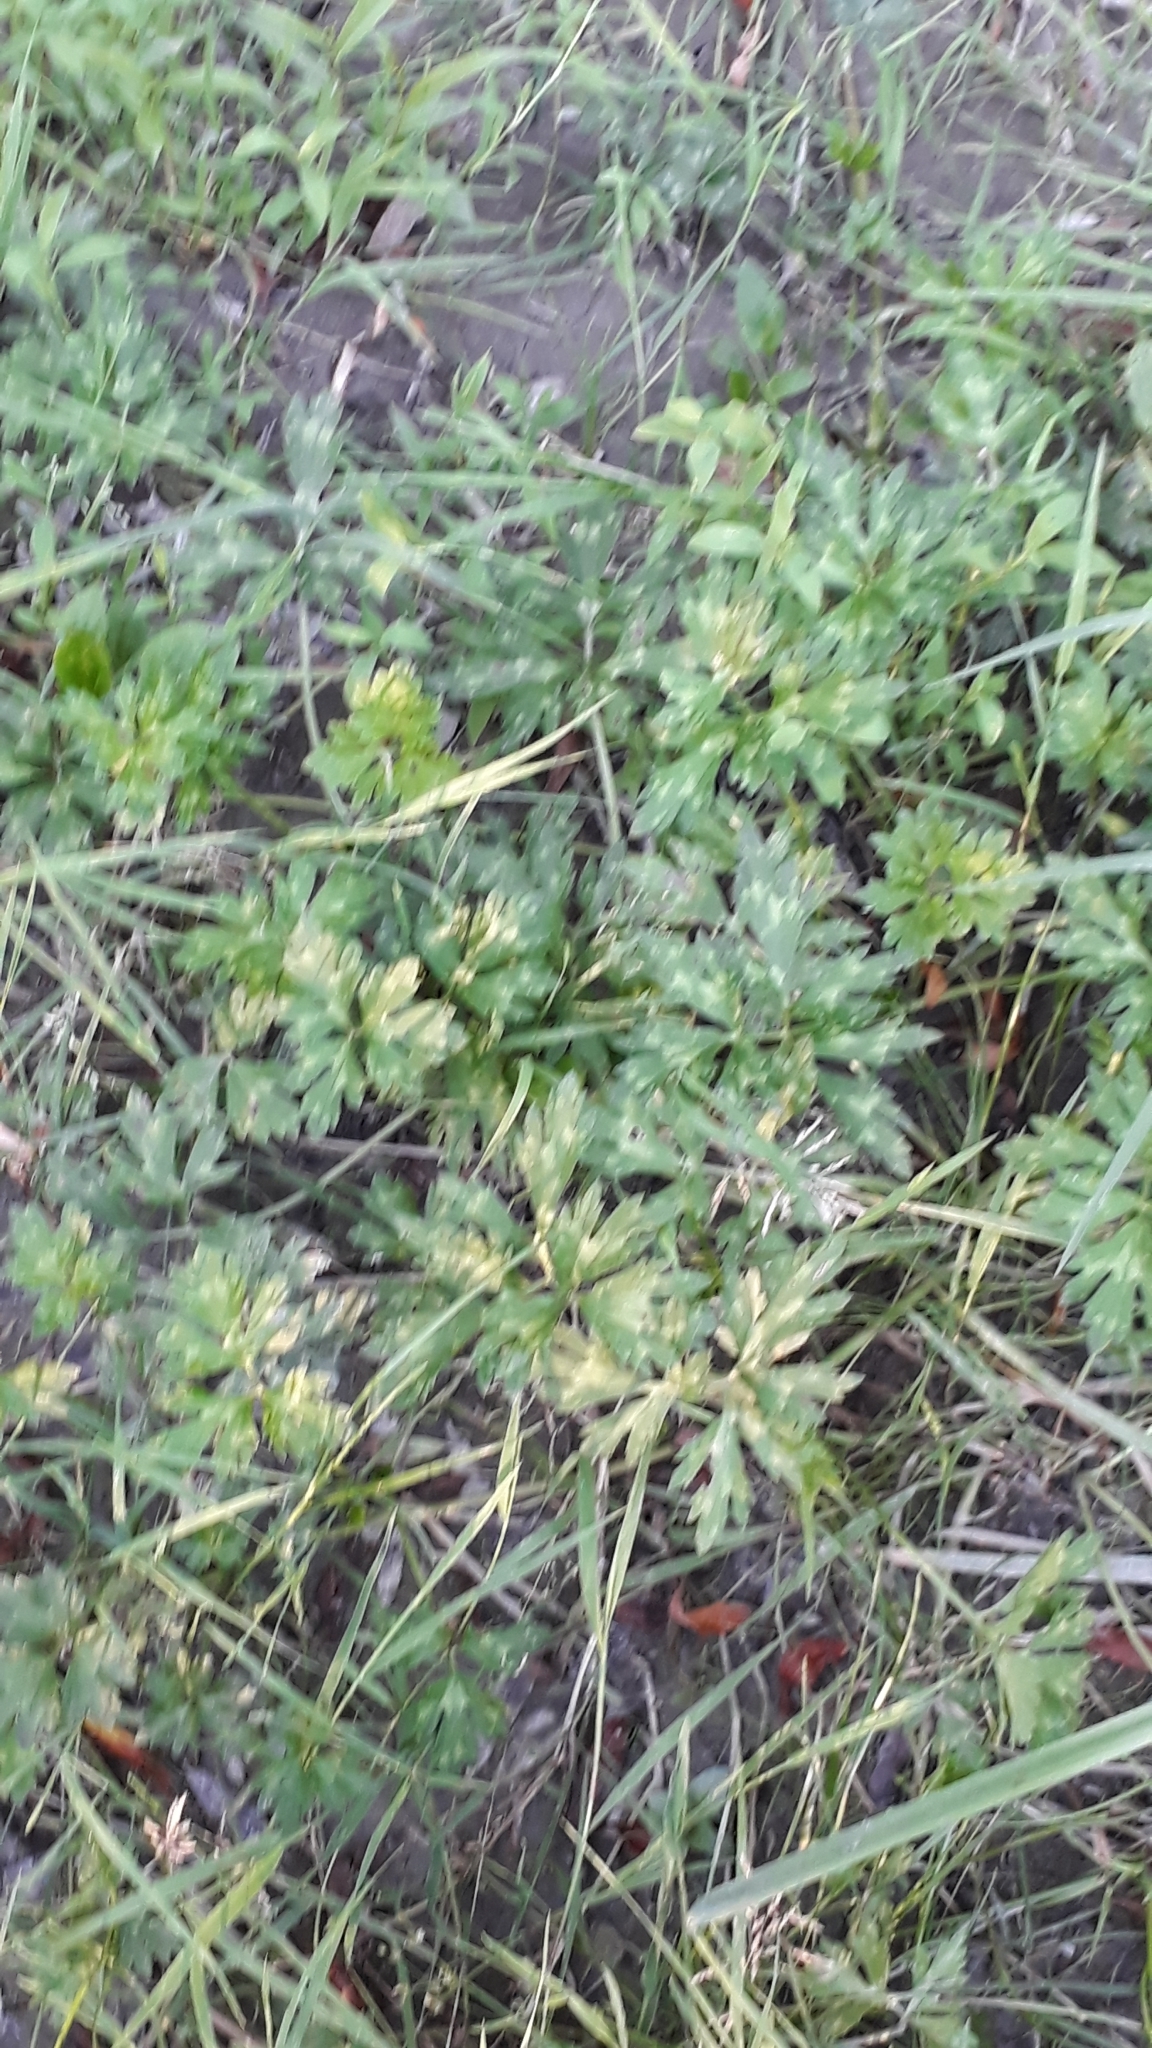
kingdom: Plantae
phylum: Tracheophyta
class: Magnoliopsida
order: Ranunculales
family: Ranunculaceae
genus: Ranunculus
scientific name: Ranunculus repens
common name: Creeping buttercup
